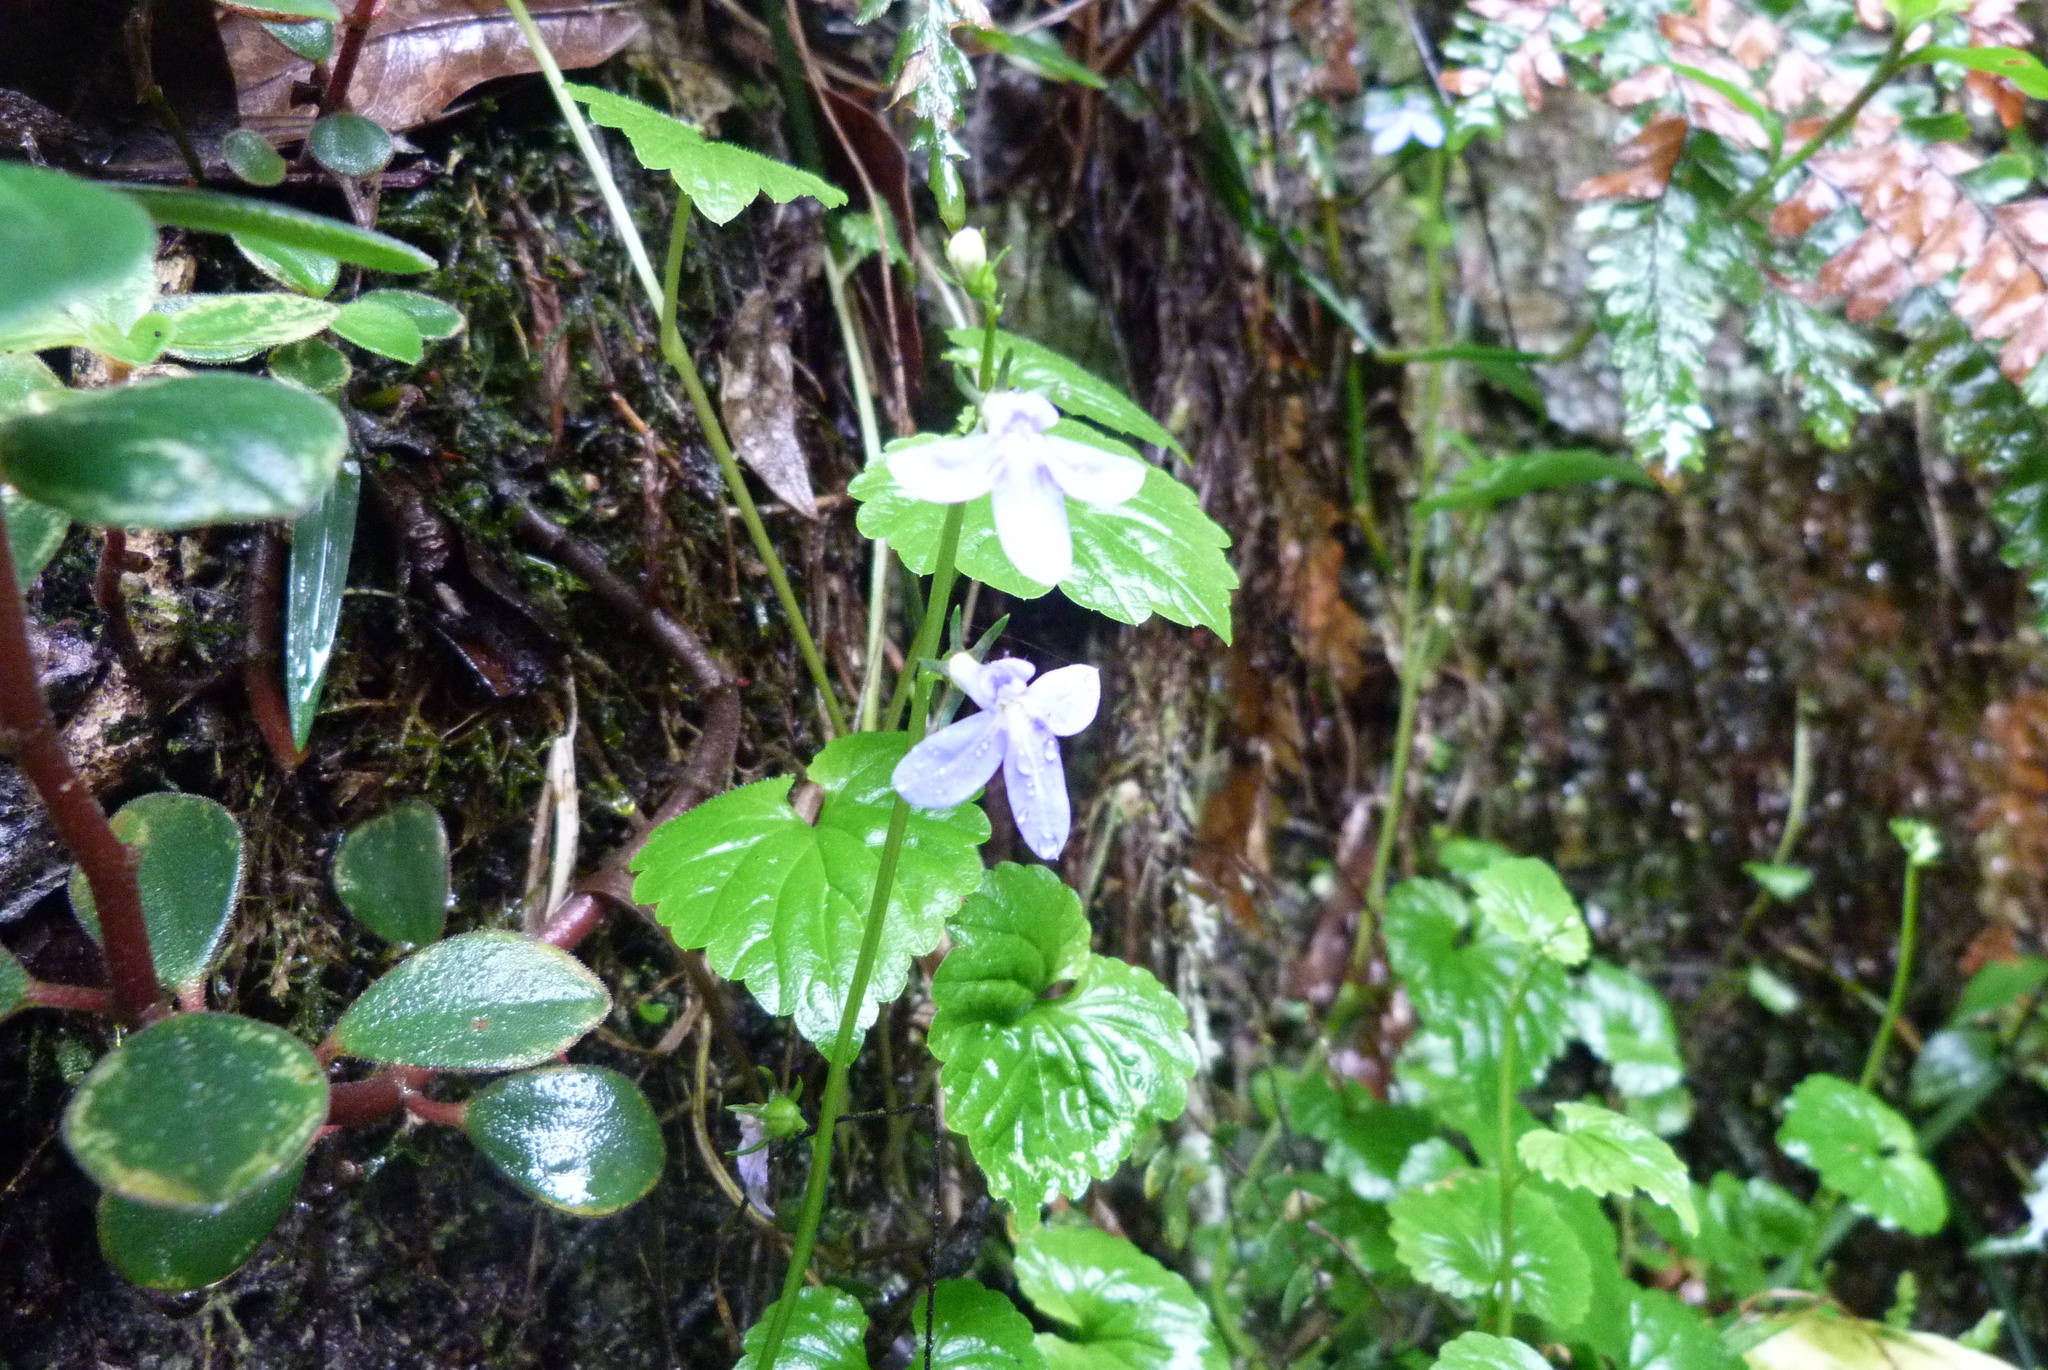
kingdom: Plantae
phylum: Tracheophyta
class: Magnoliopsida
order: Asterales
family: Campanulaceae
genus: Lobelia
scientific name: Lobelia trigonocaulis
